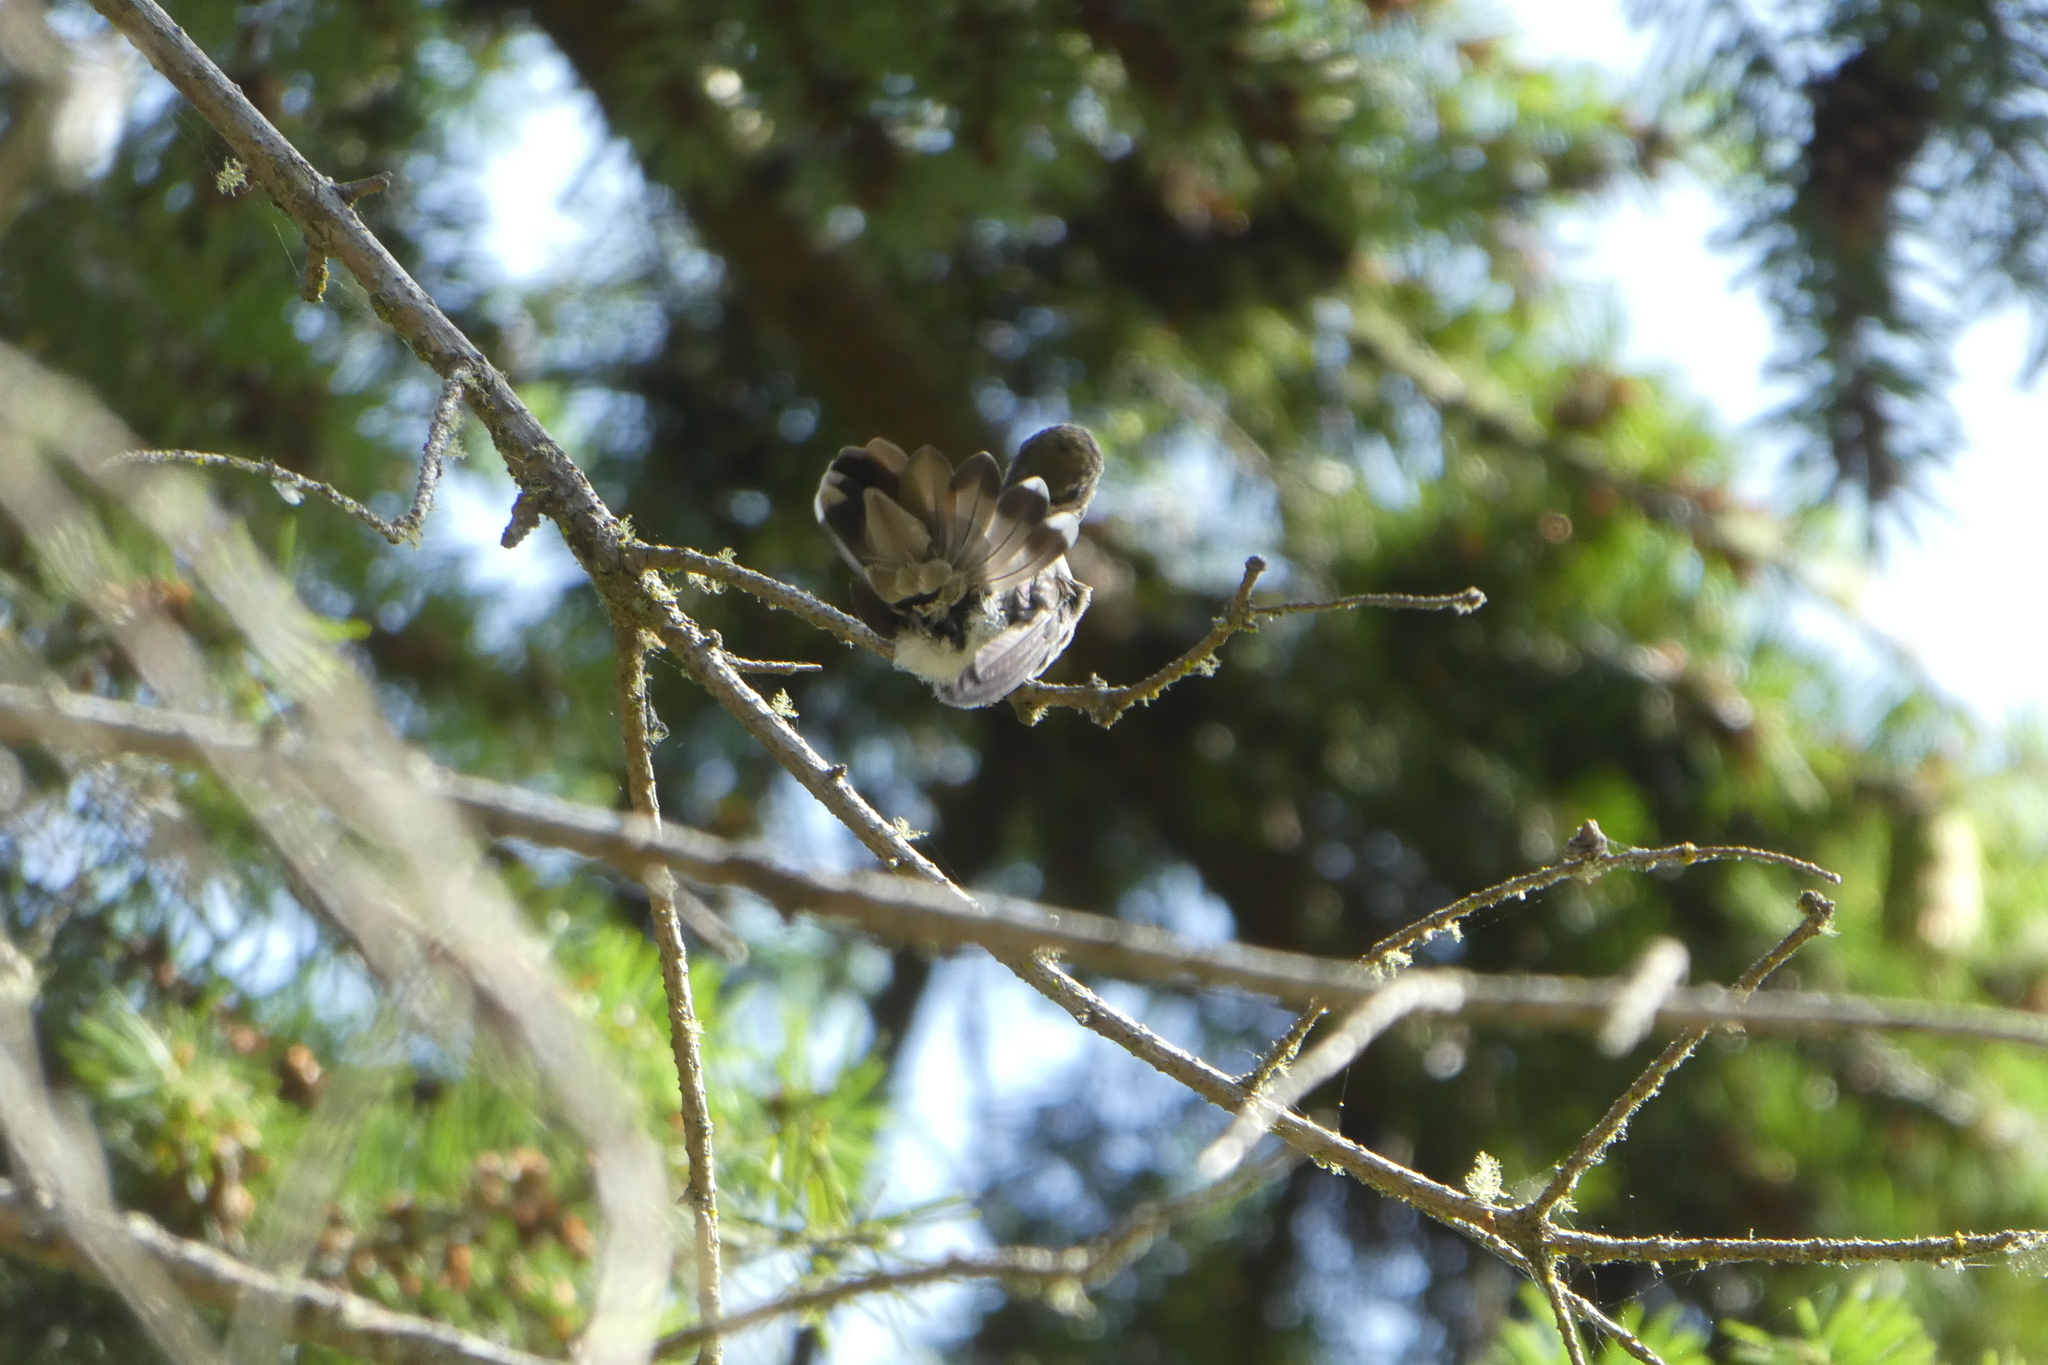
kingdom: Animalia
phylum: Chordata
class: Aves
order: Apodiformes
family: Trochilidae
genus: Calypte
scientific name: Calypte anna
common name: Anna's hummingbird
